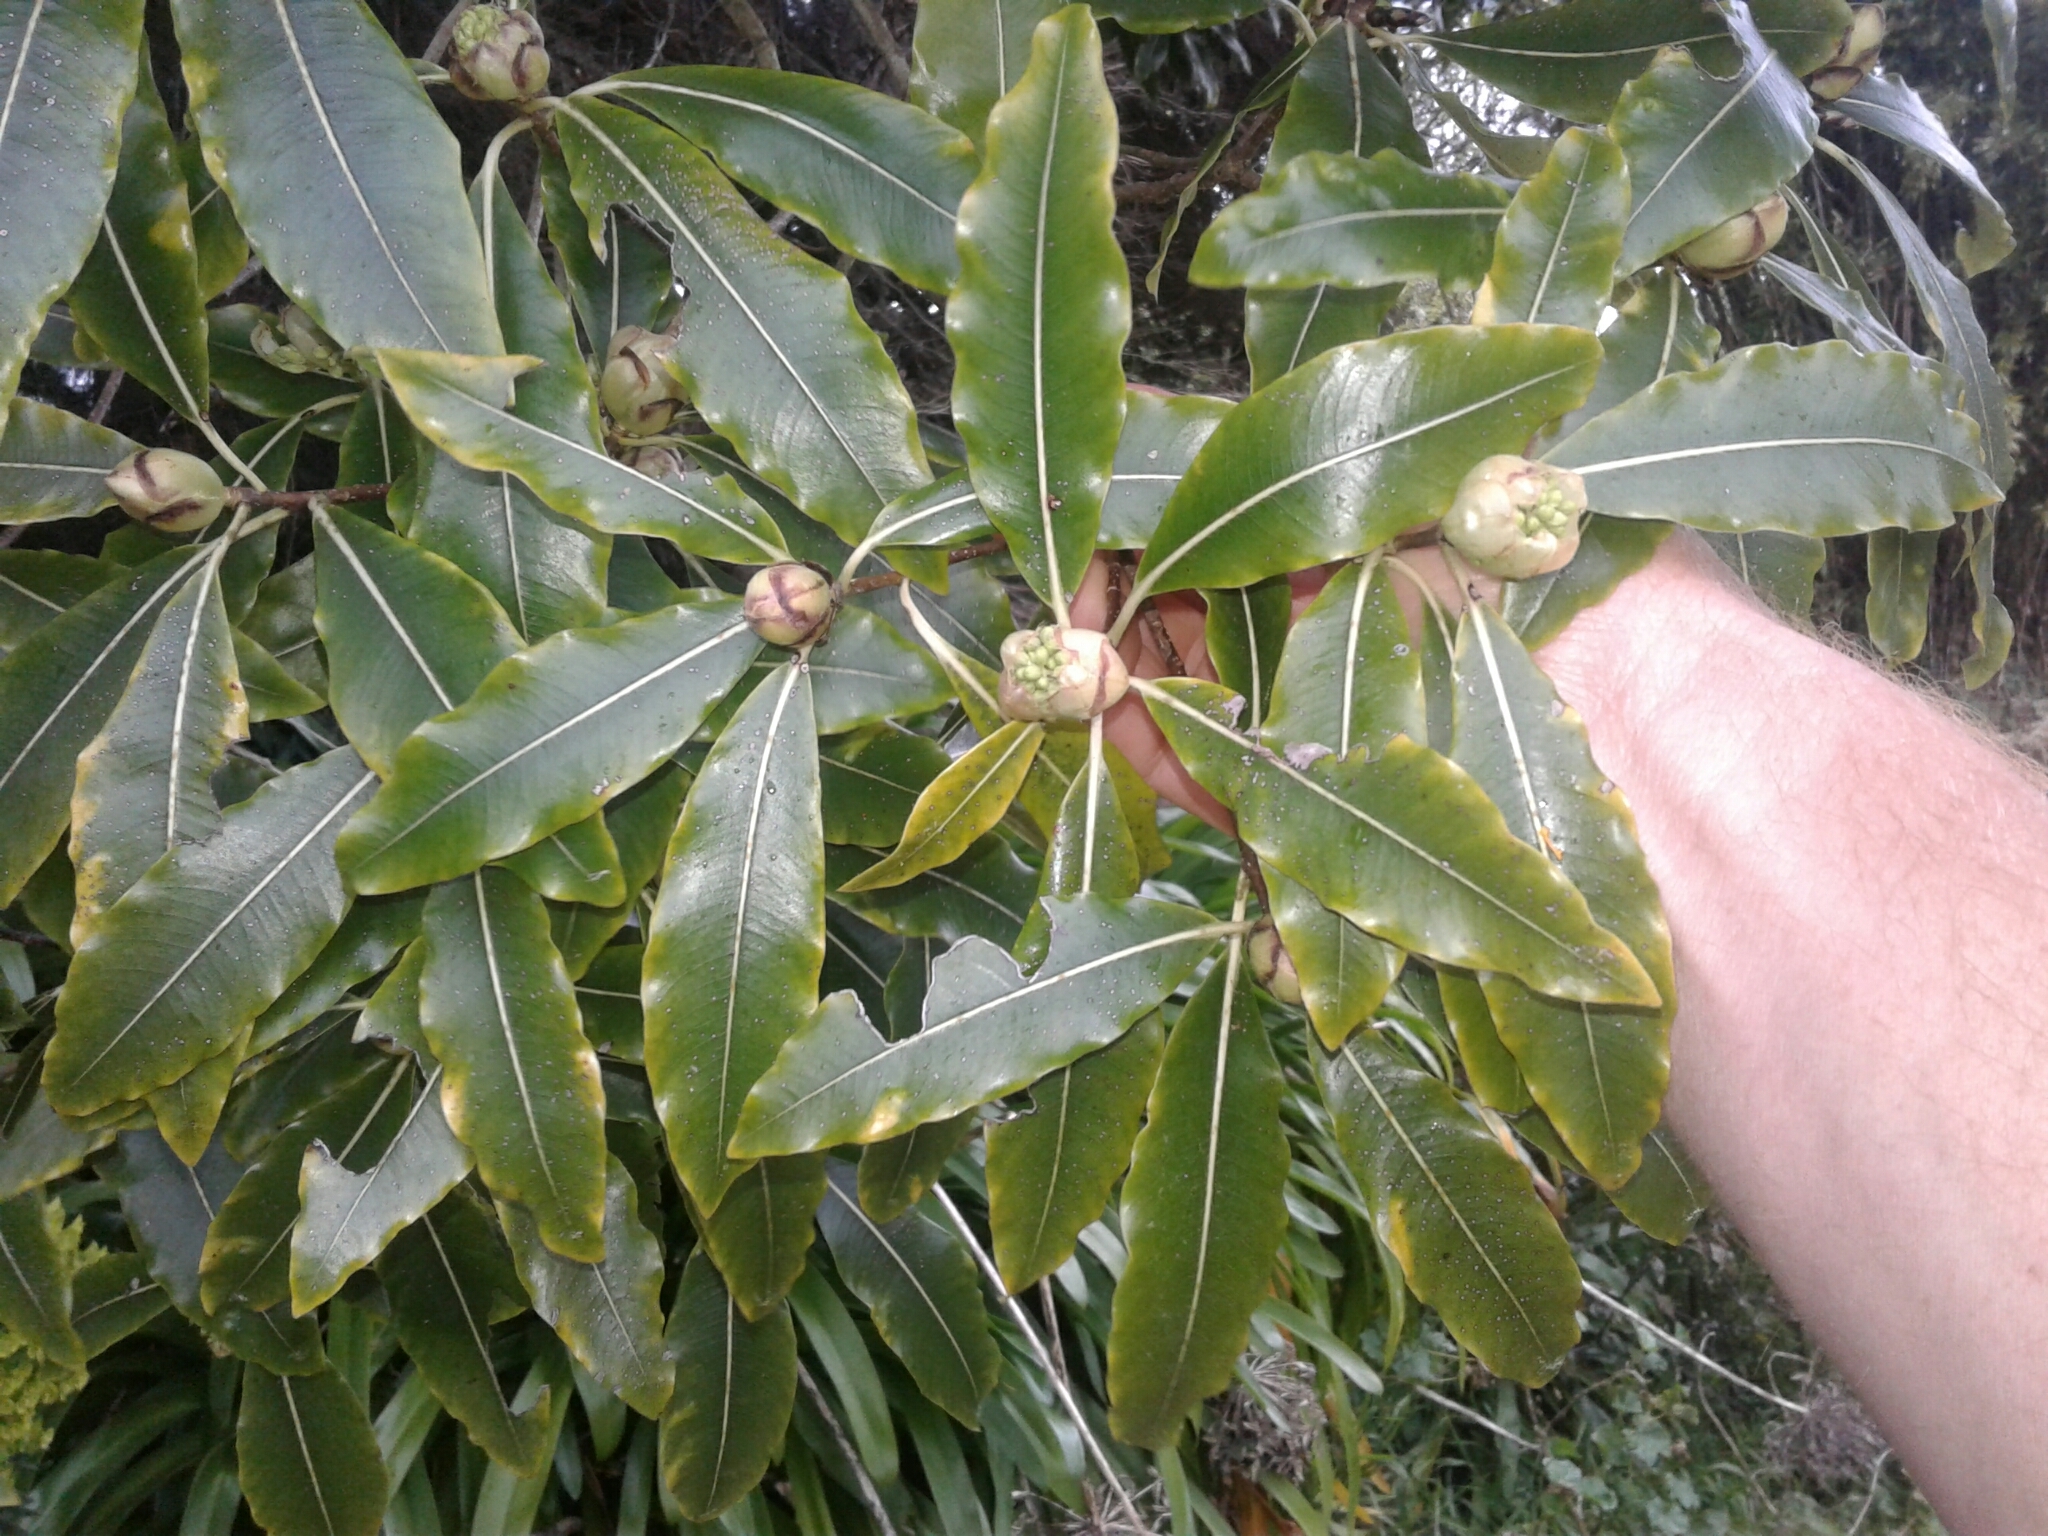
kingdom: Plantae
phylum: Tracheophyta
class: Magnoliopsida
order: Apiales
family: Pittosporaceae
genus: Pittosporum
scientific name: Pittosporum eugenioides
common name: Lemonwood
